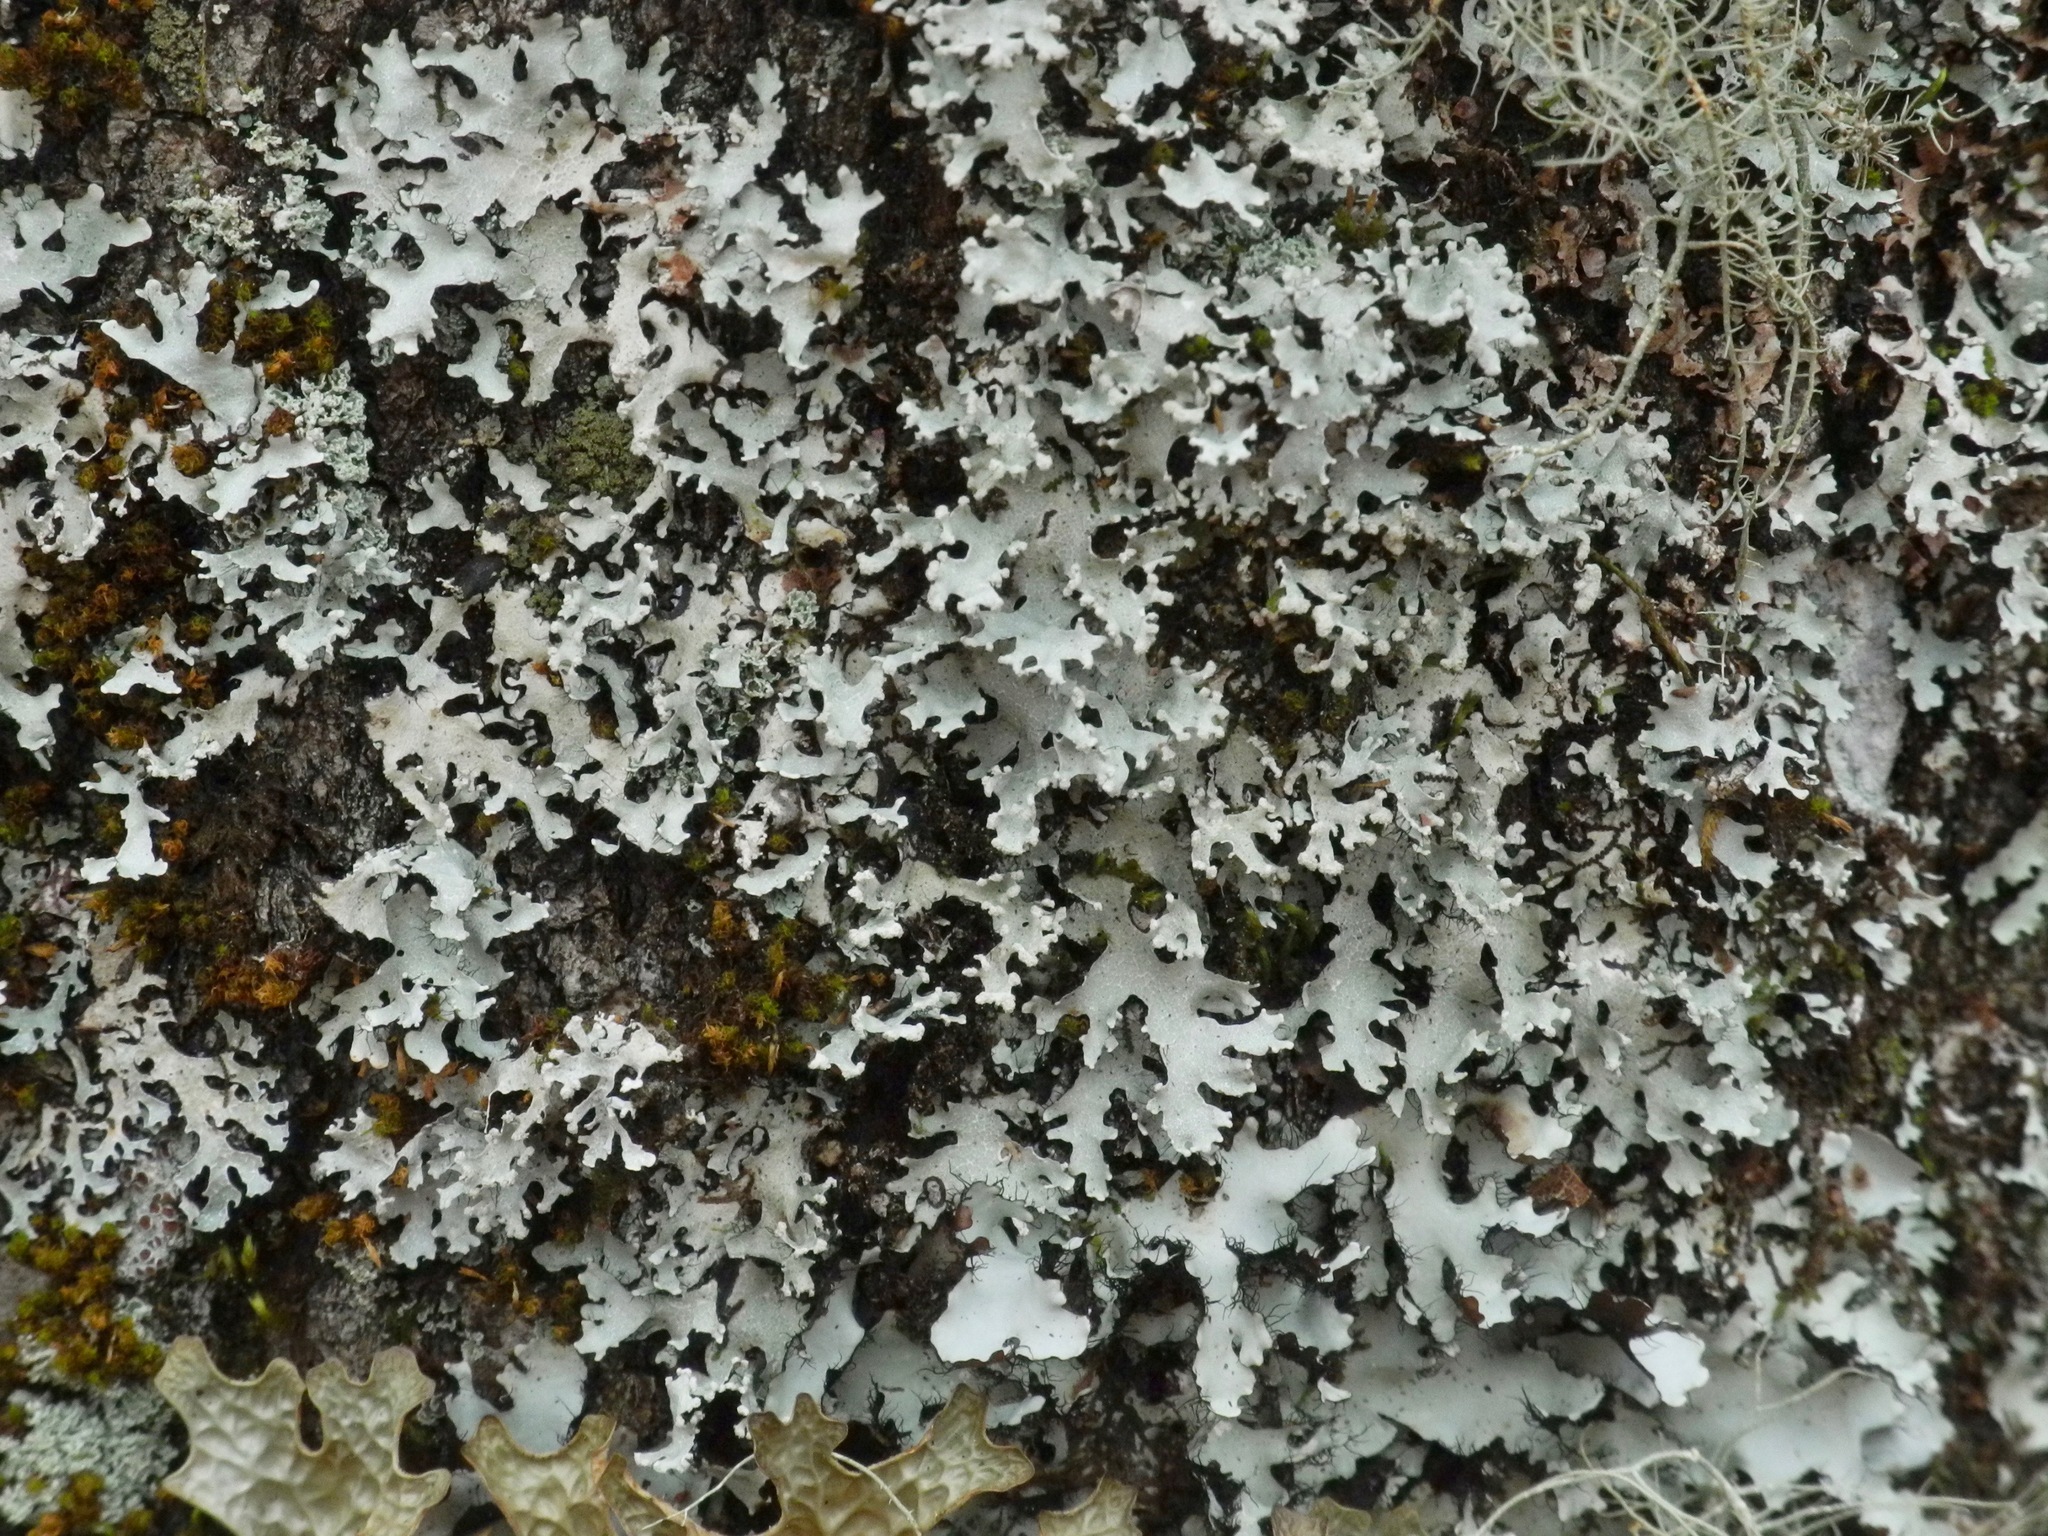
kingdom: Fungi
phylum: Ascomycota
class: Lecanoromycetes
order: Lecanorales
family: Parmeliaceae
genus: Parmotrema
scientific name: Parmotrema reticulatum
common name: Black sheet lichen
